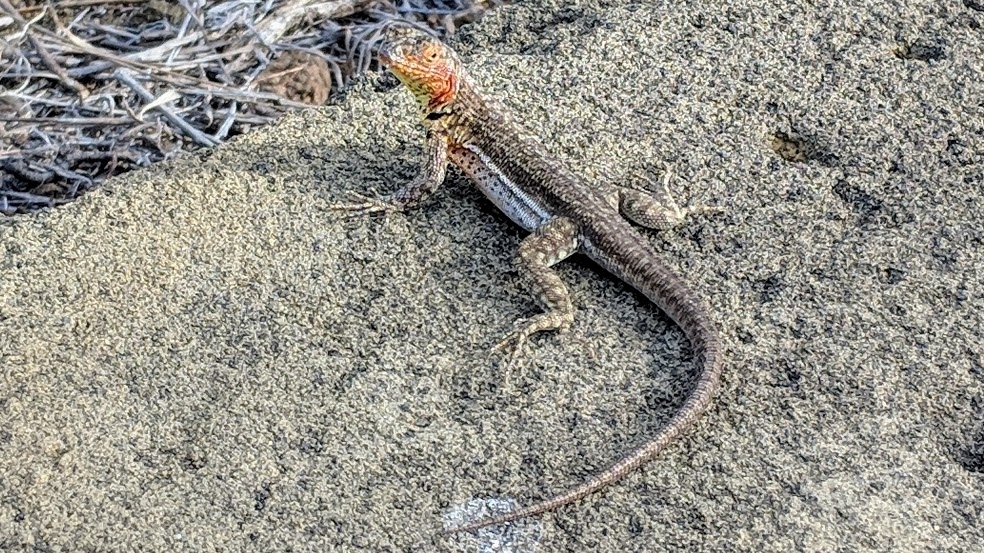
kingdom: Animalia
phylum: Chordata
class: Squamata
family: Tropiduridae
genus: Microlophus
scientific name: Microlophus jacobii
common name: Santiago lava lizard
